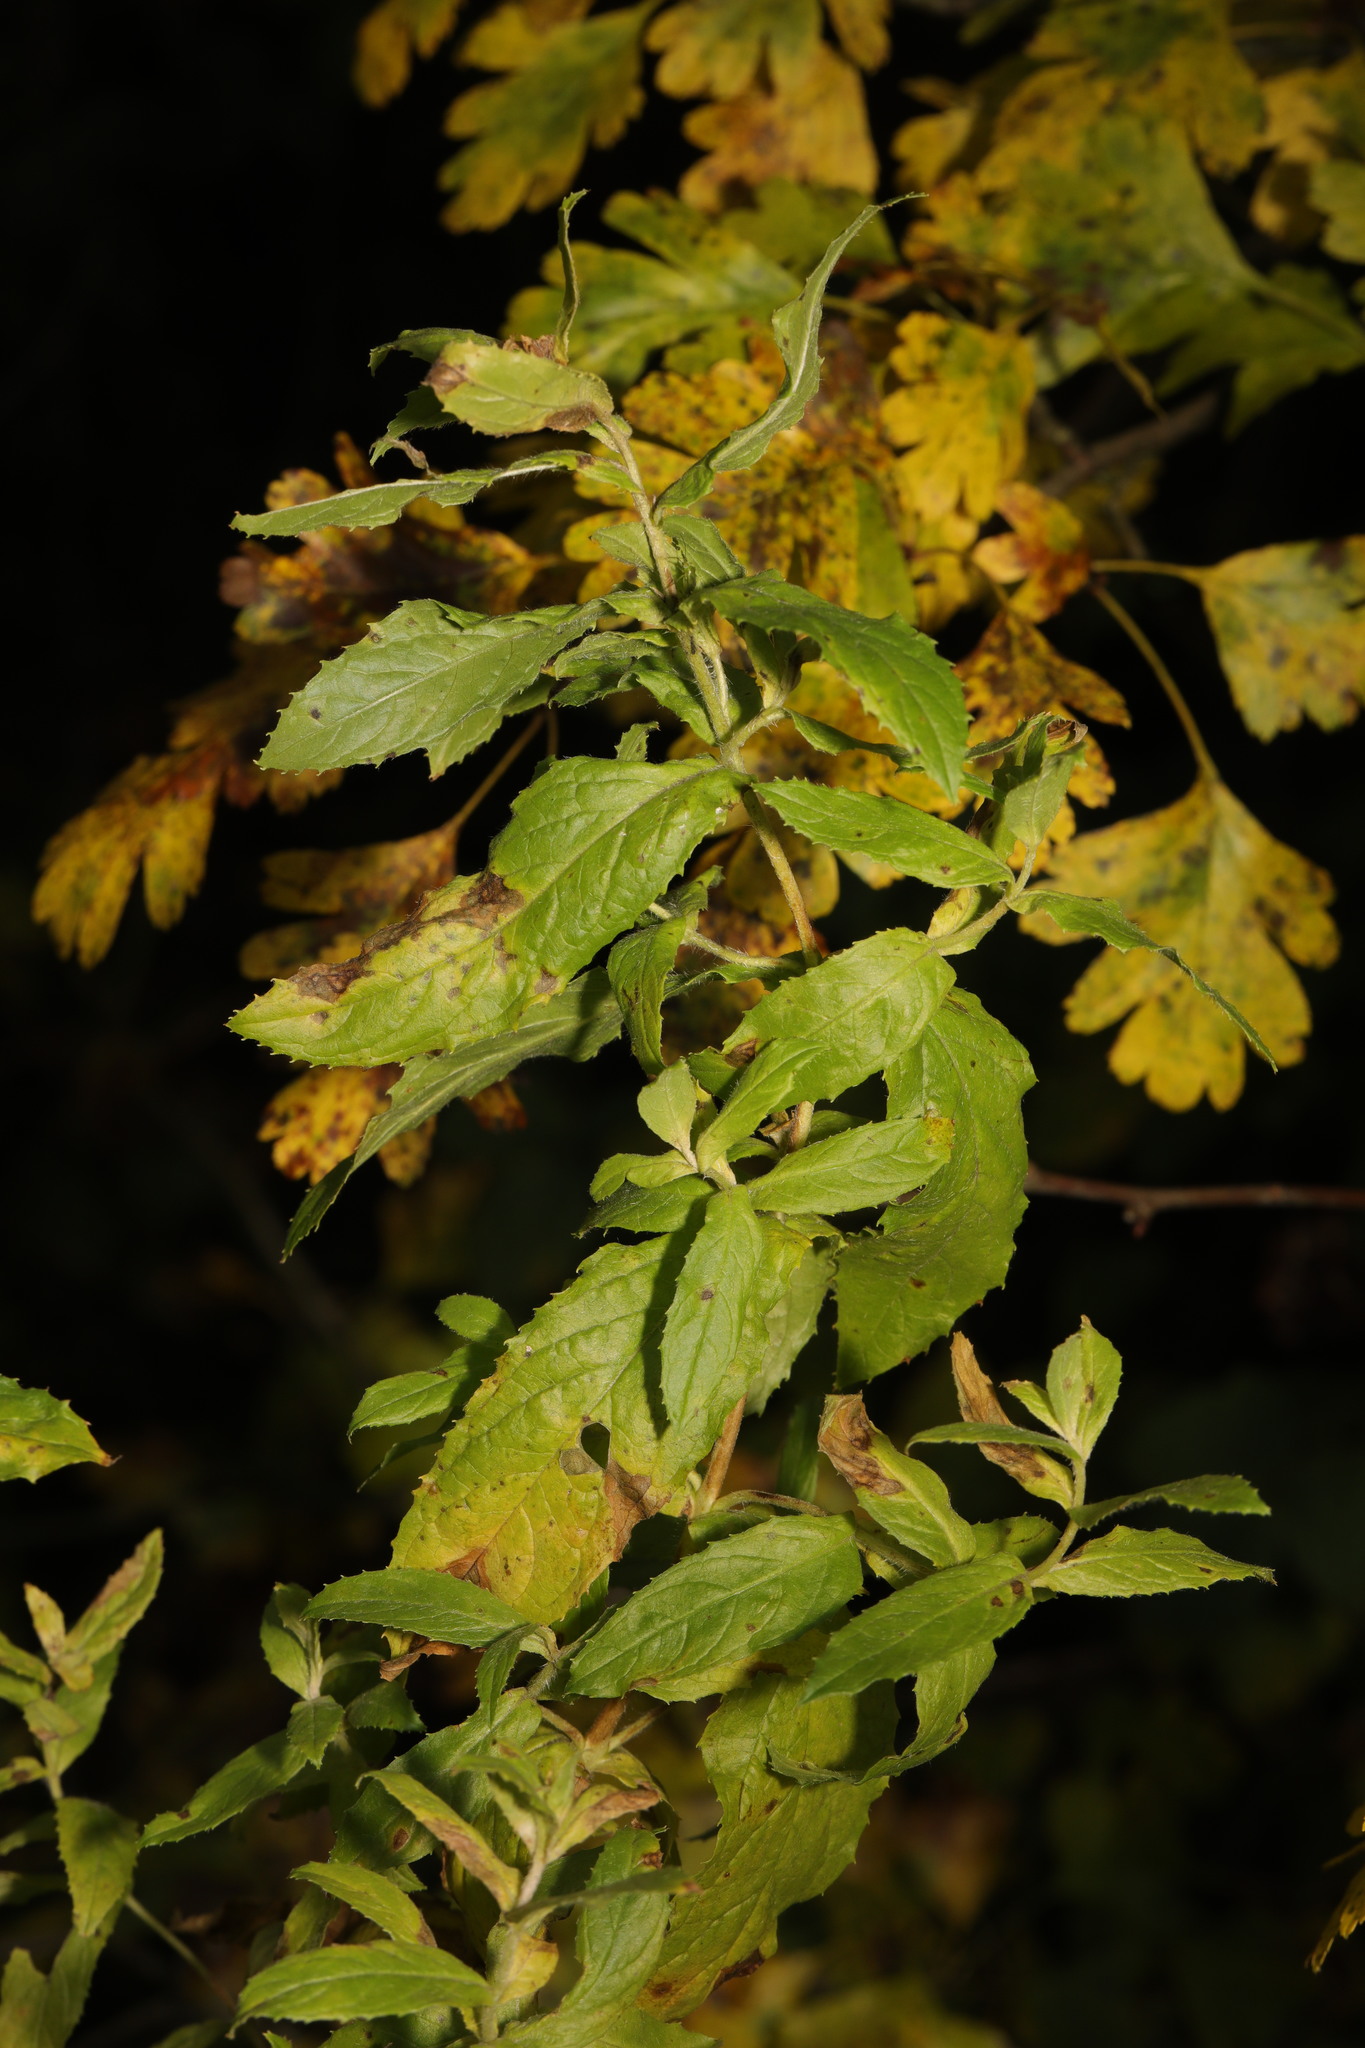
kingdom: Plantae
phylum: Tracheophyta
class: Magnoliopsida
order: Myrtales
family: Onagraceae
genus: Epilobium
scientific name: Epilobium hirsutum
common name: Great willowherb
